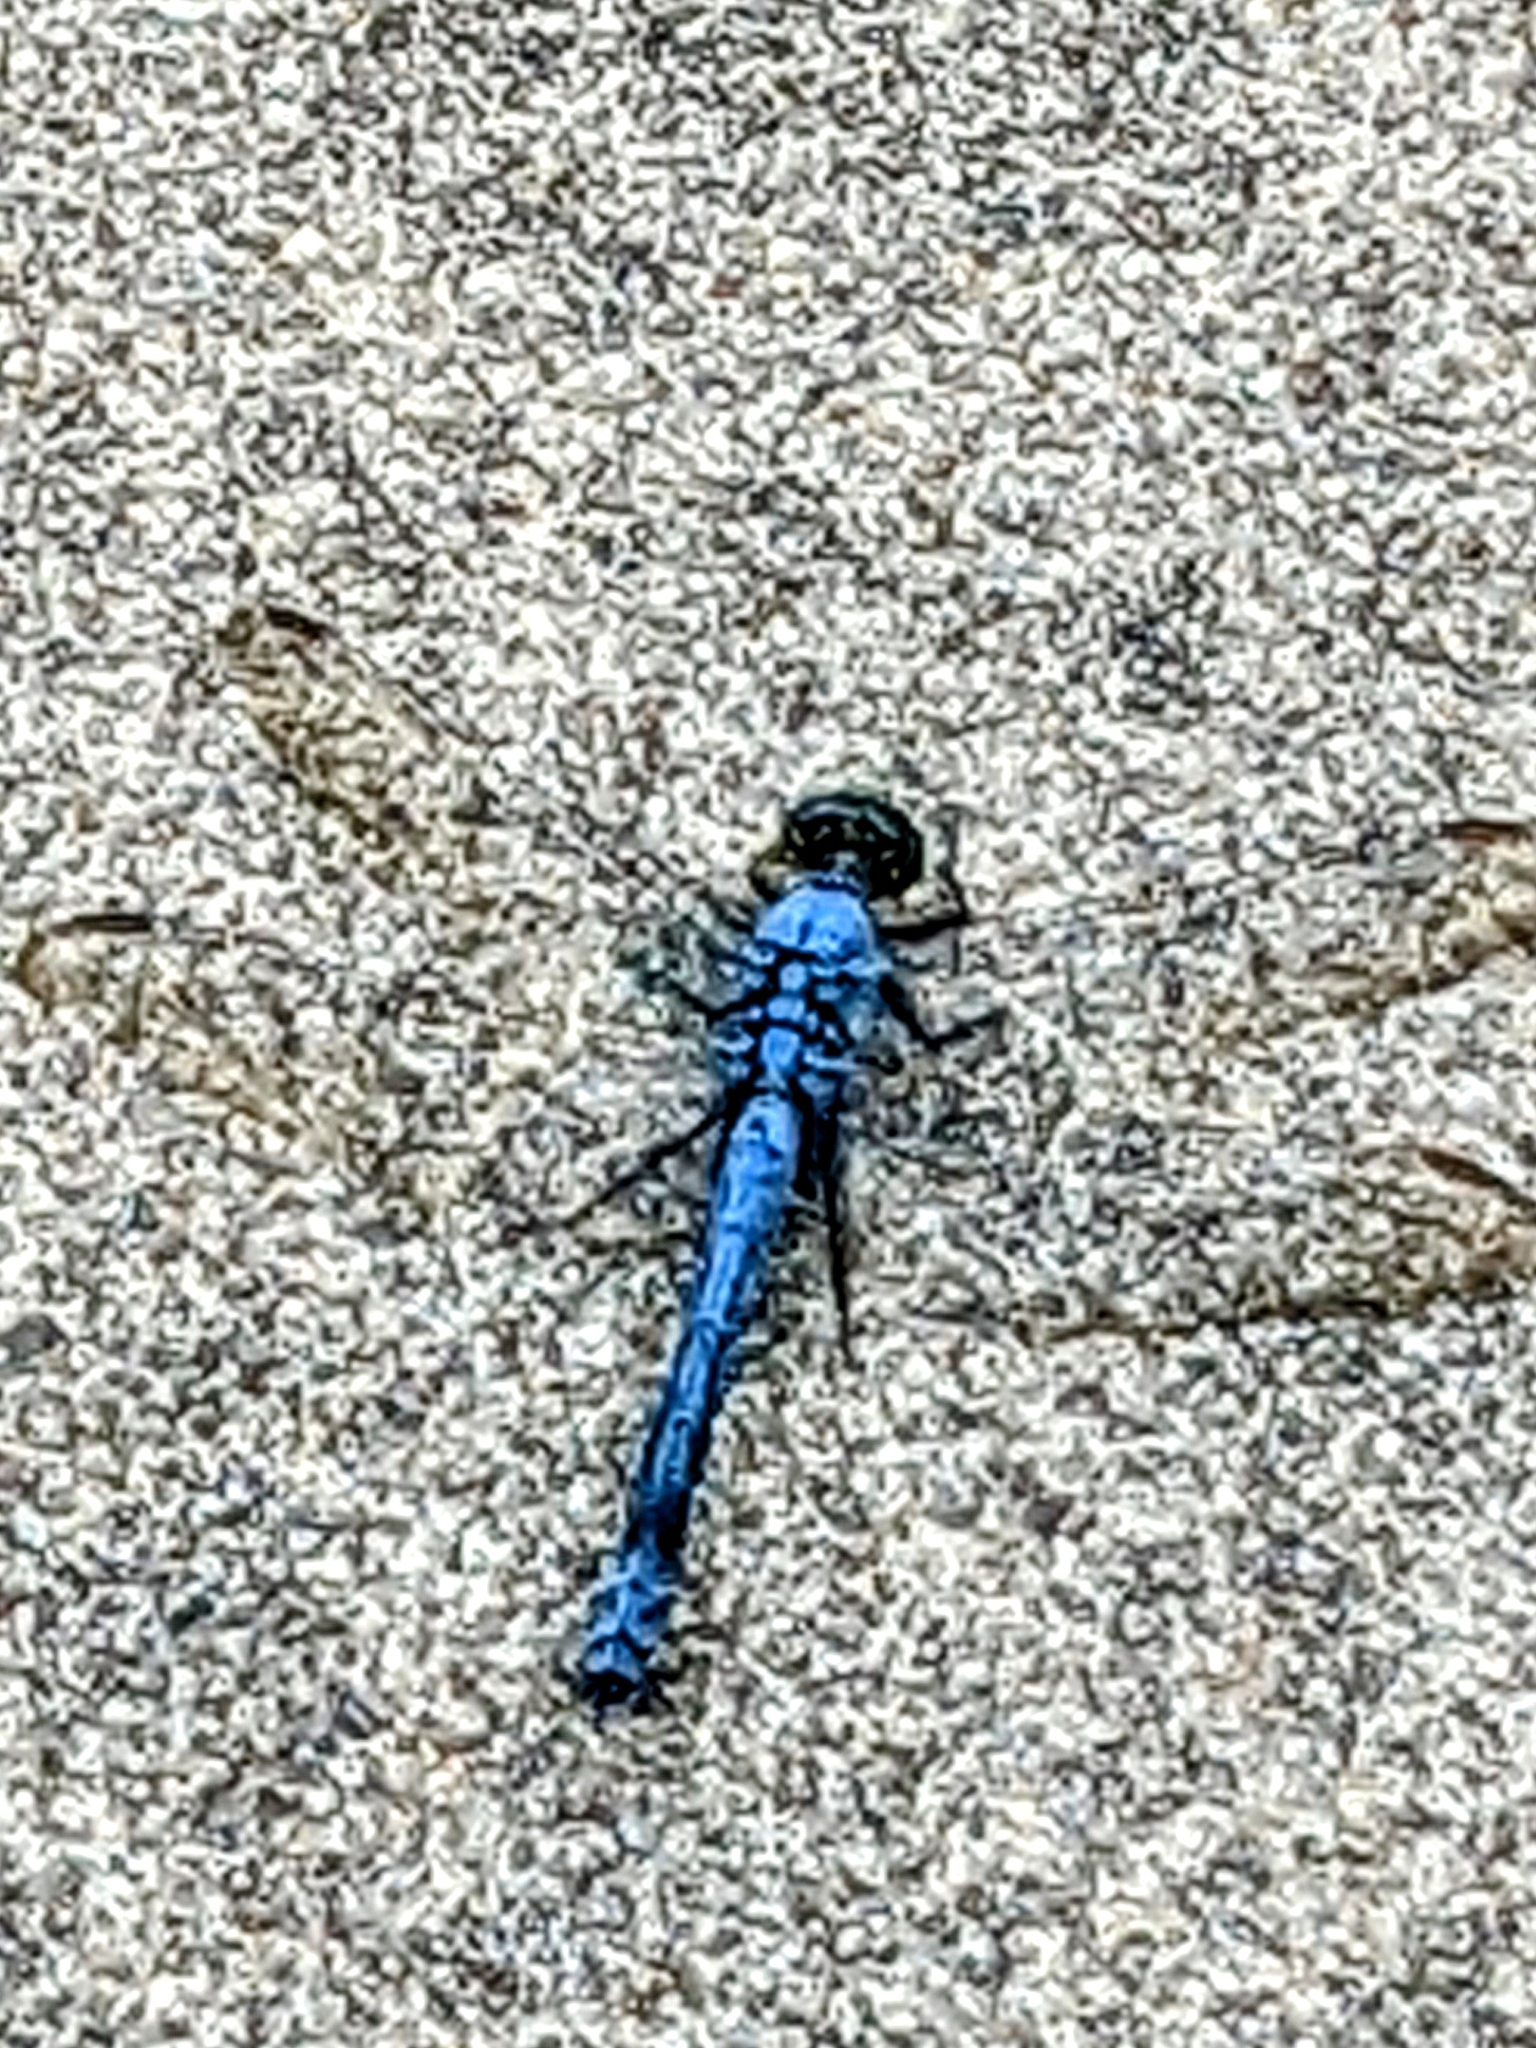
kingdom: Animalia
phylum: Arthropoda
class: Insecta
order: Odonata
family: Libellulidae
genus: Erythemis
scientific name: Erythemis simplicicollis
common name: Eastern pondhawk
